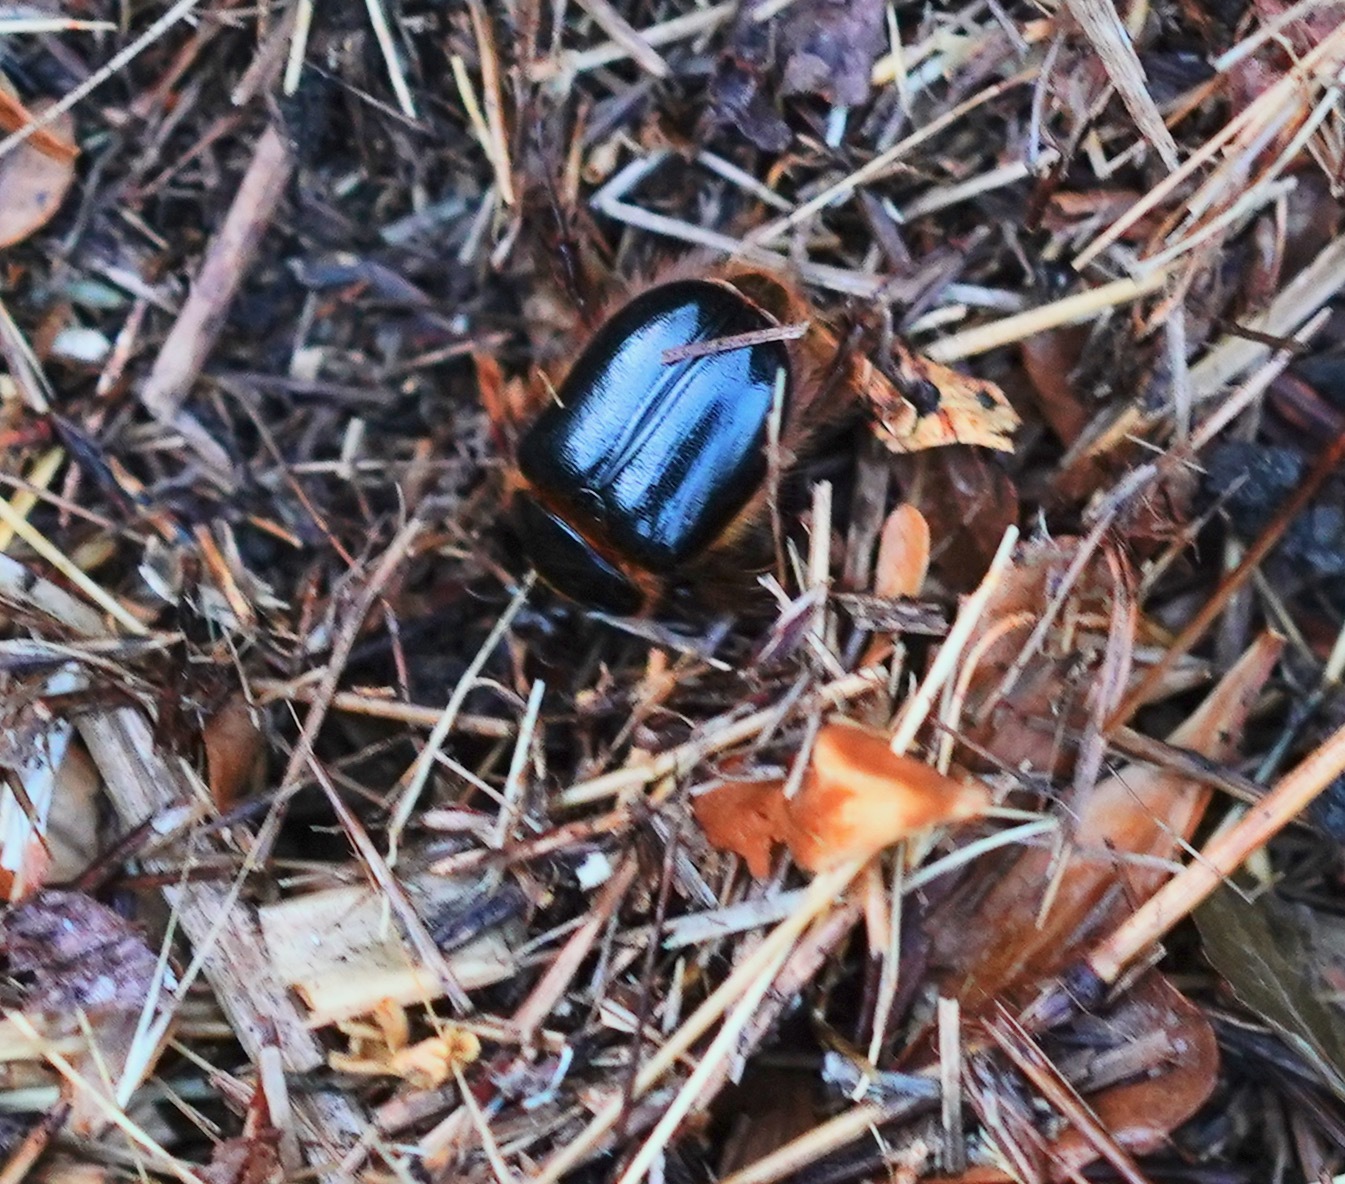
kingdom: Animalia
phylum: Arthropoda
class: Insecta
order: Coleoptera
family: Pleocomidae
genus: Pleocoma
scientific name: Pleocoma behrensi
